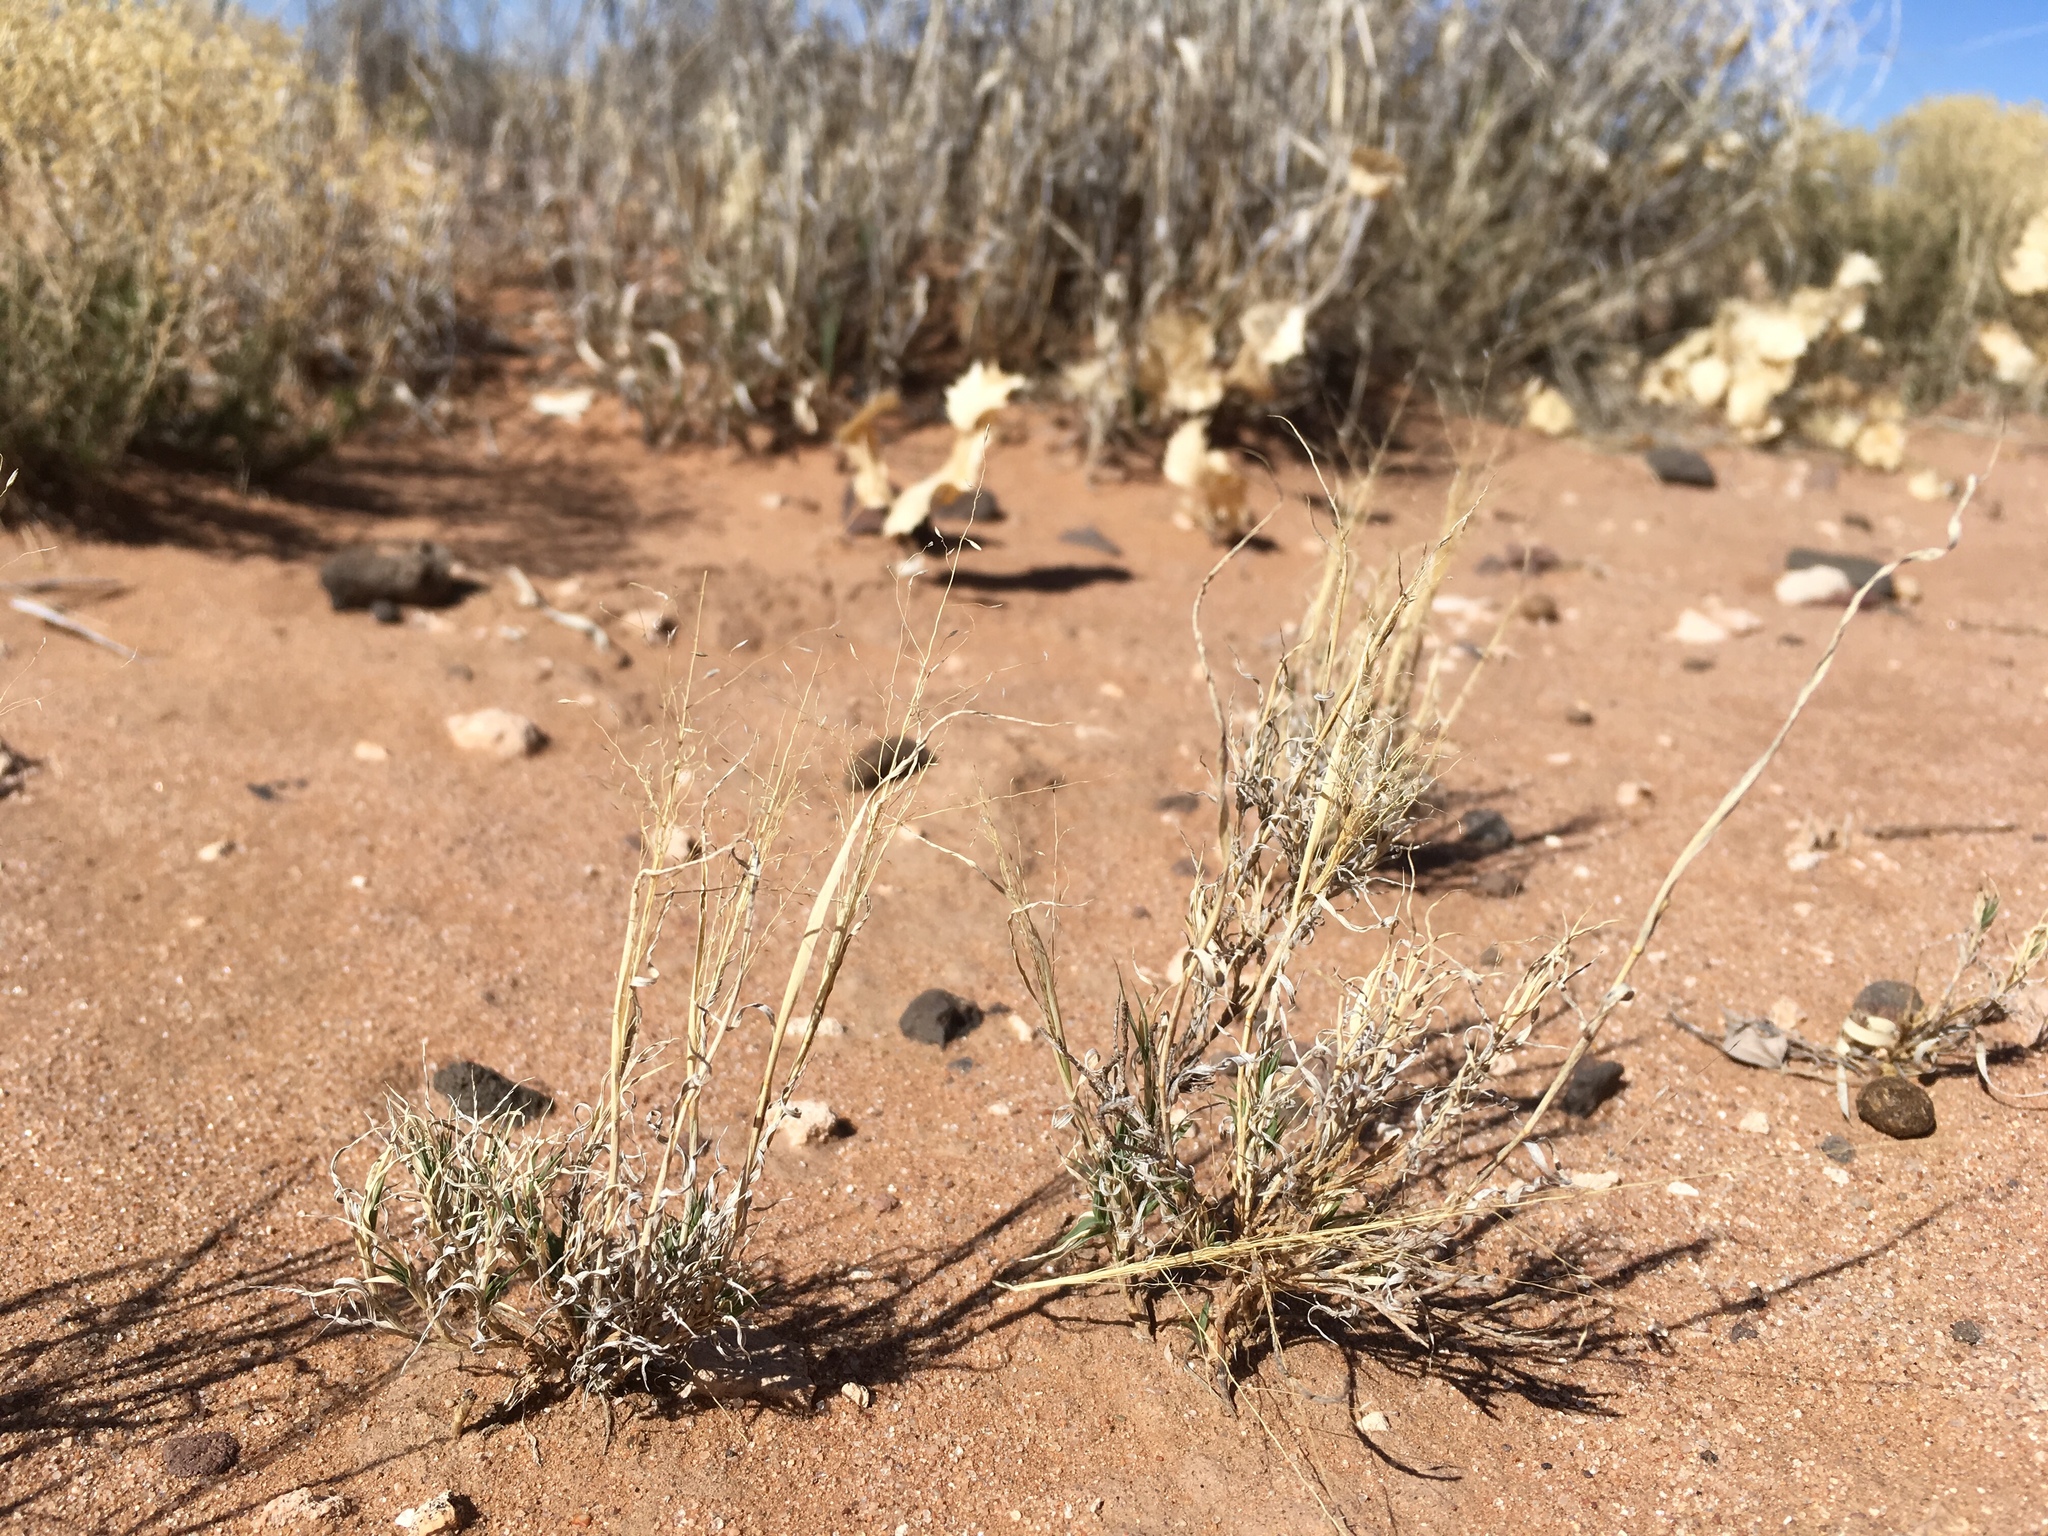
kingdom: Plantae
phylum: Tracheophyta
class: Liliopsida
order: Poales
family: Poaceae
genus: Muhlenbergia
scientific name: Muhlenbergia arenacea
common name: Ear muhly
